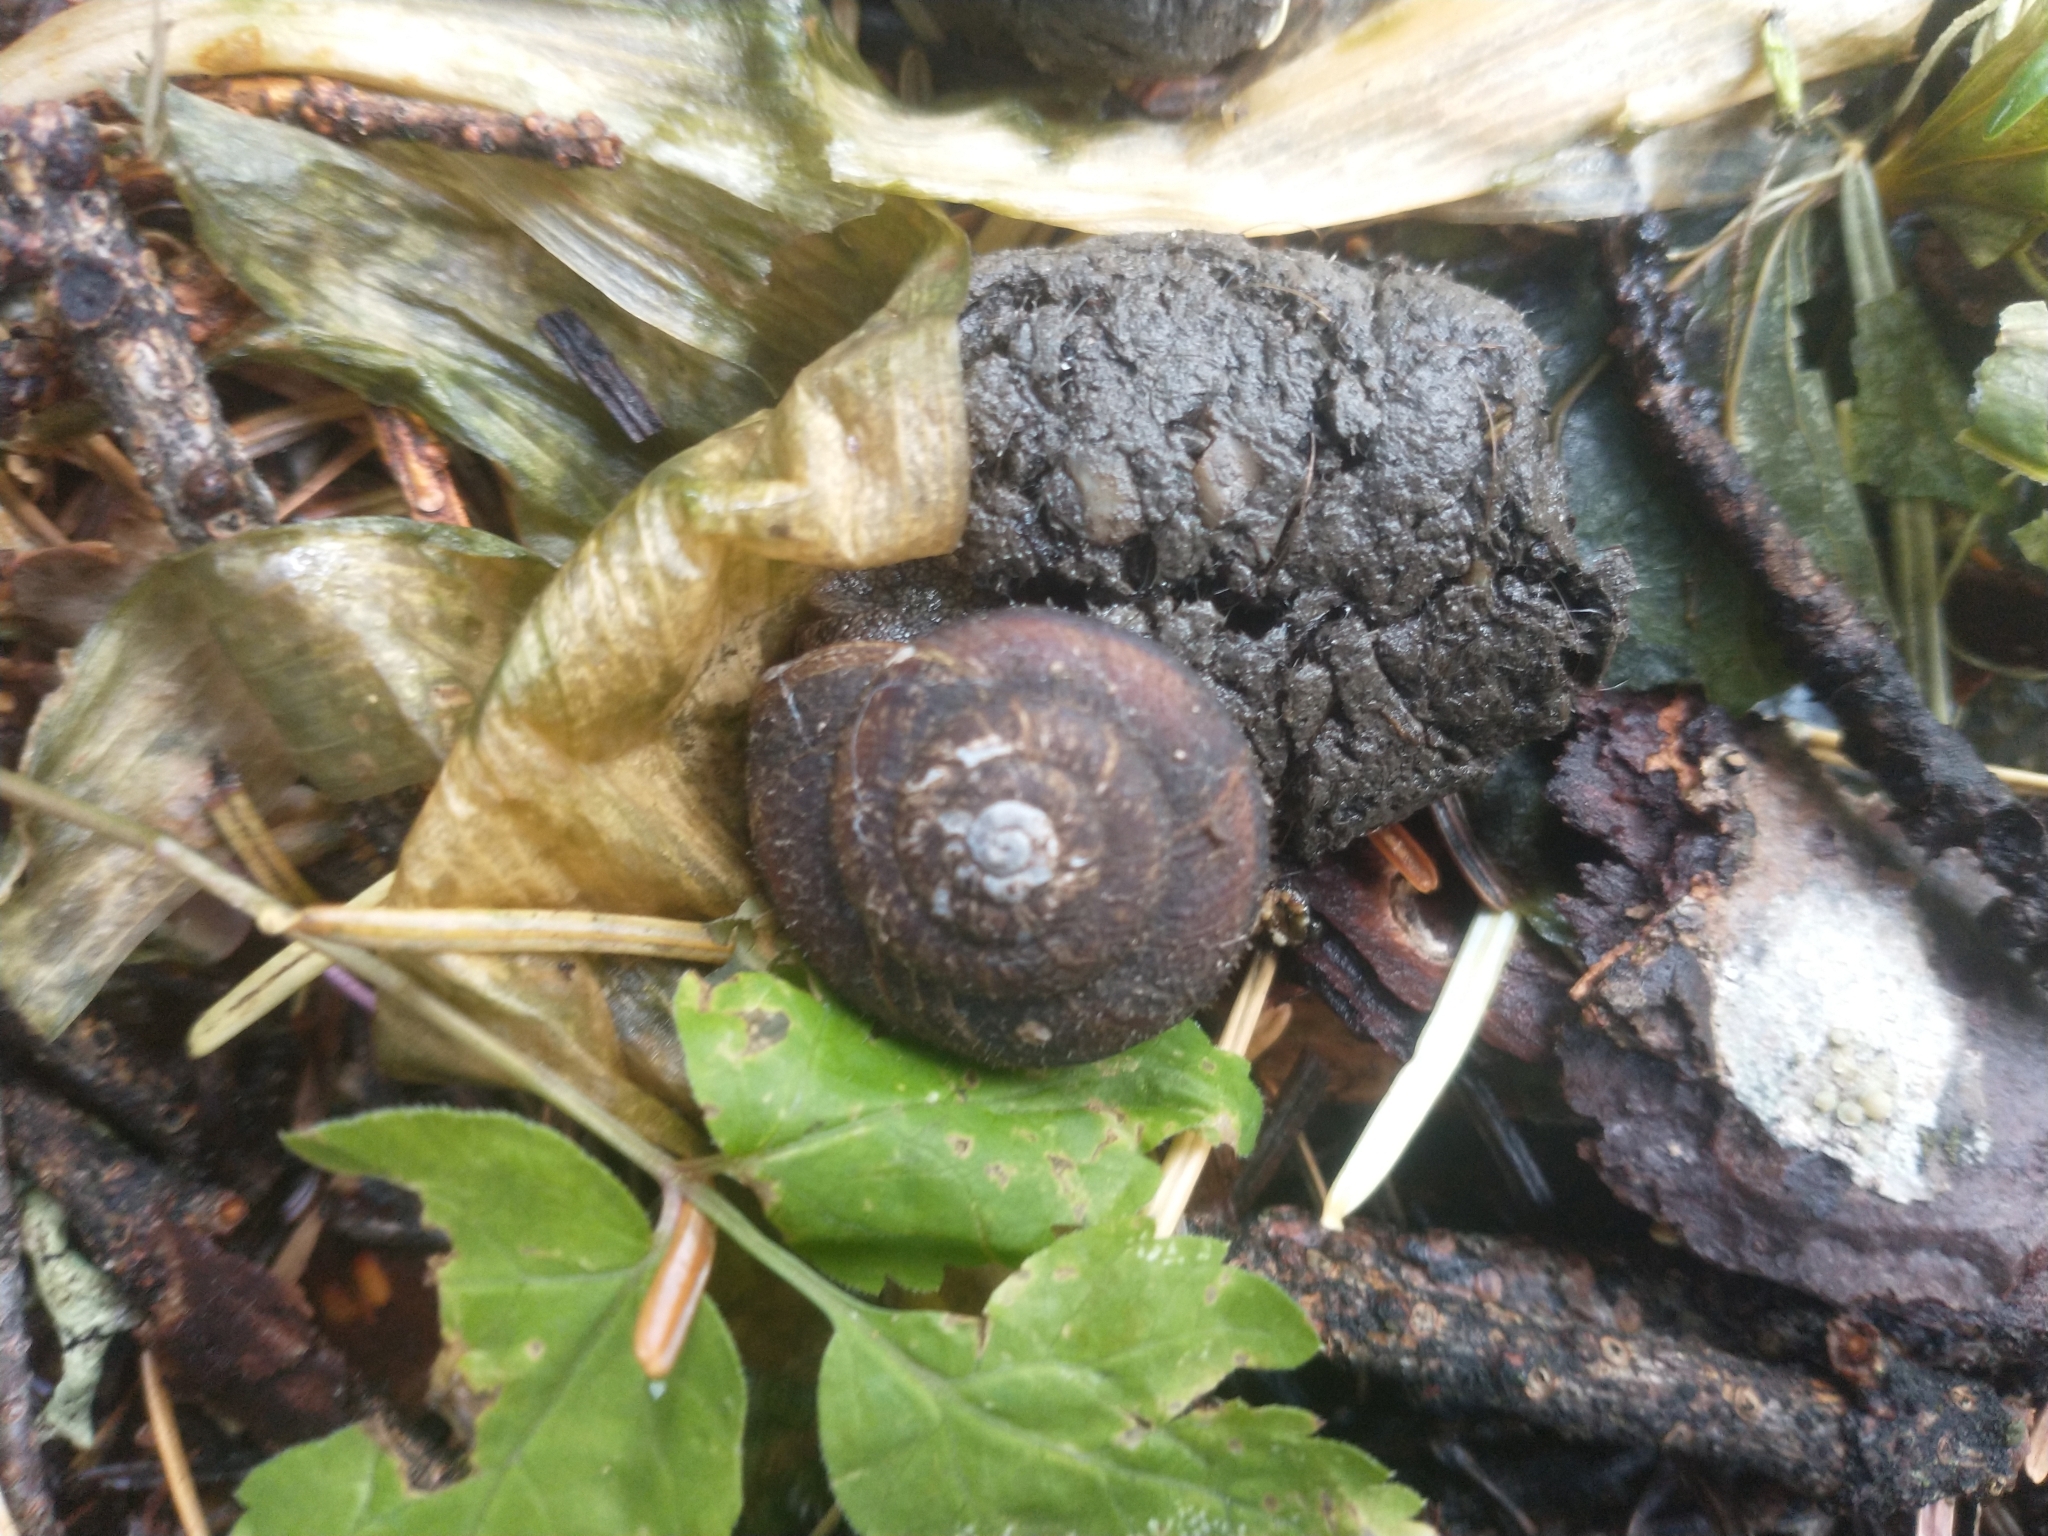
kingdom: Animalia
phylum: Mollusca
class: Gastropoda
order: Stylommatophora
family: Xanthonychidae
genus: Monadenia
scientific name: Monadenia marmarotis
